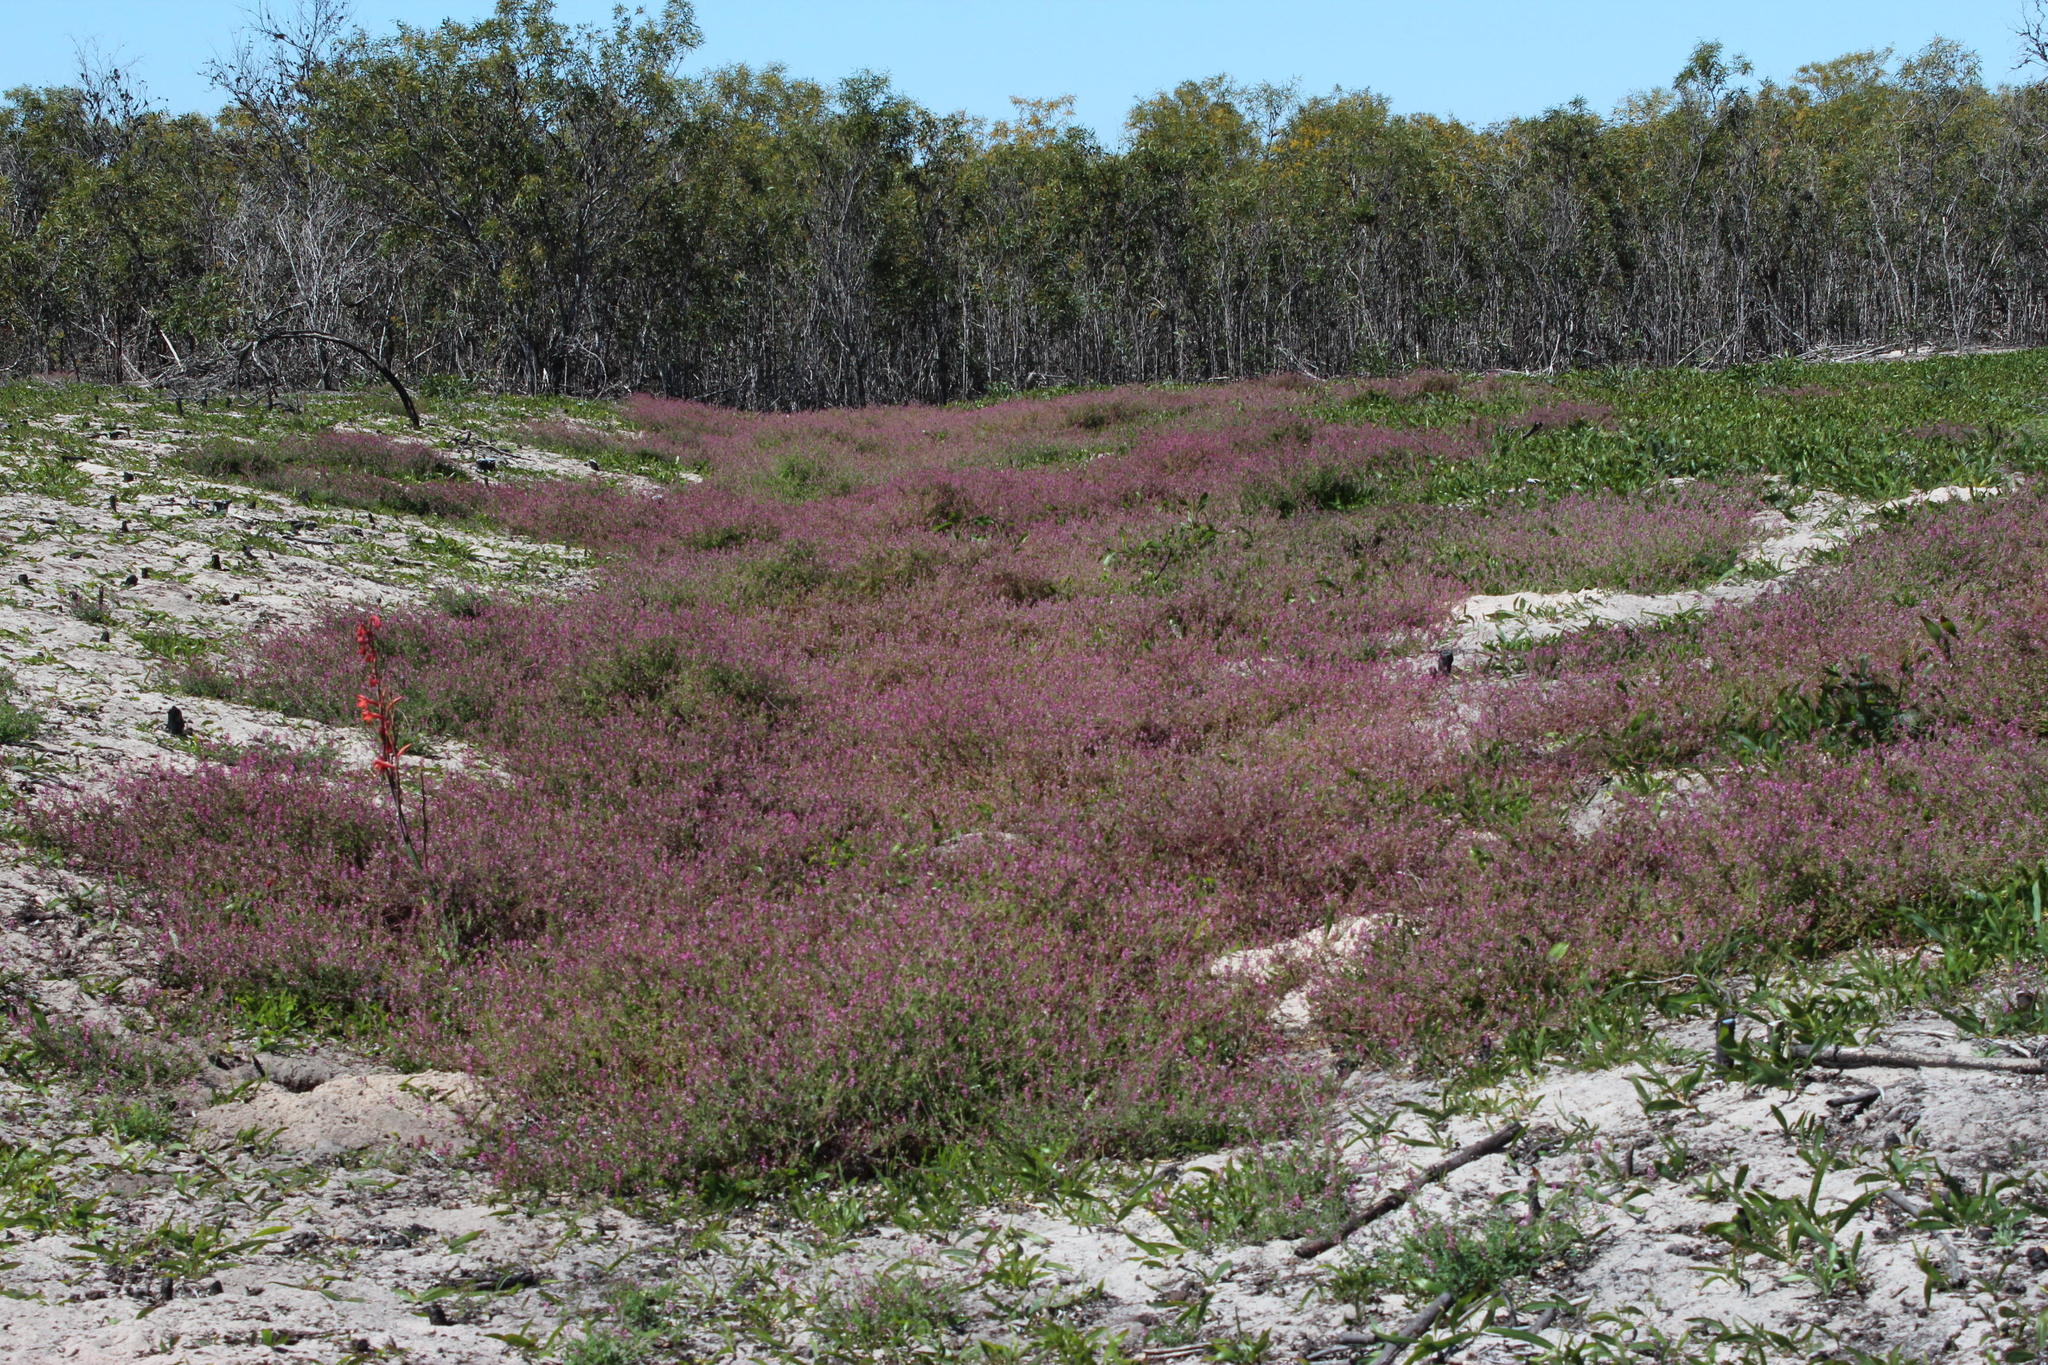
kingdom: Plantae
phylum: Tracheophyta
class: Magnoliopsida
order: Ranunculales
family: Papaveraceae
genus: Fumaria
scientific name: Fumaria muralis
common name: Common ramping-fumitory
